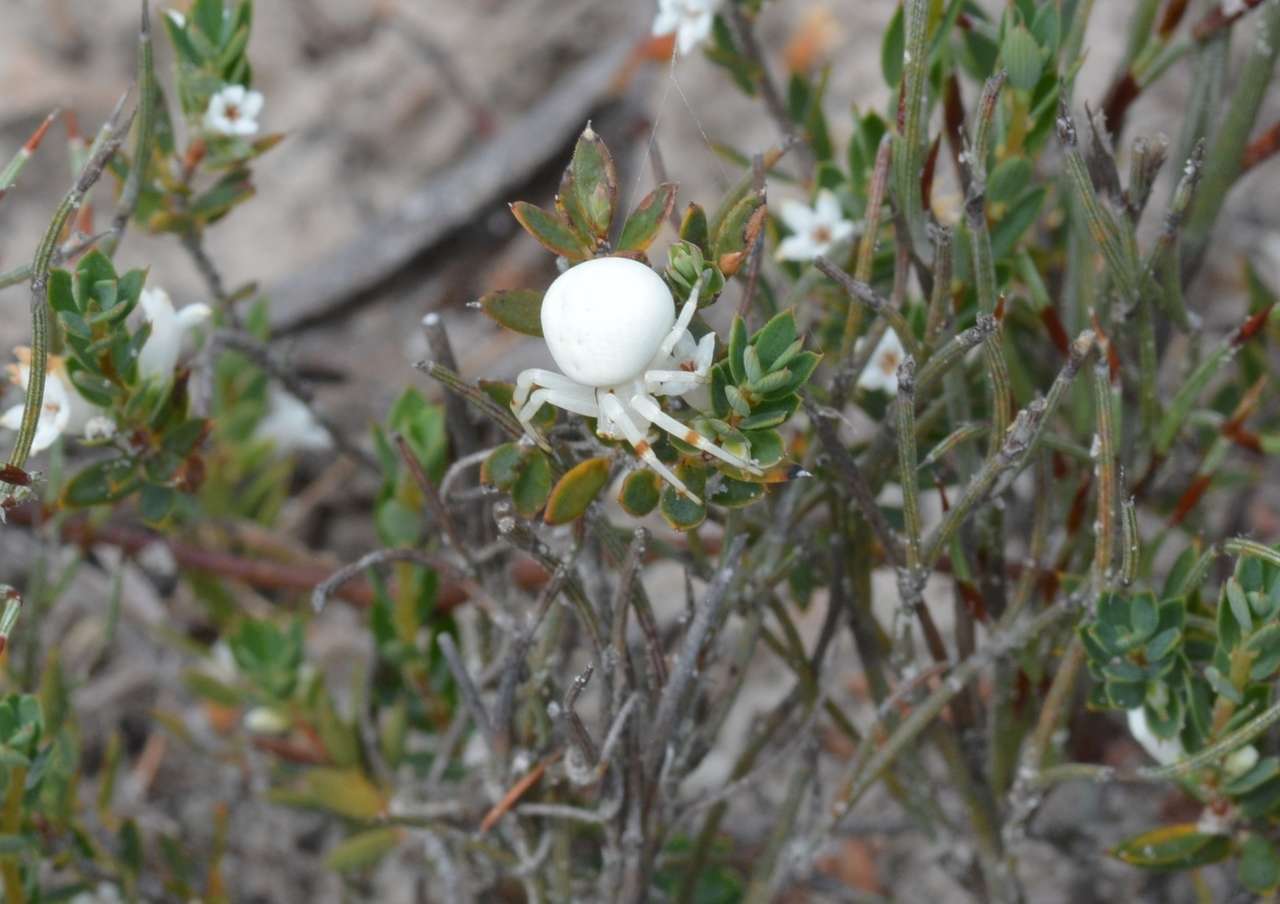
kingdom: Animalia
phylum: Arthropoda
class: Arachnida
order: Araneae
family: Thomisidae
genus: Zygometis
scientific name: Zygometis xanthogaster
